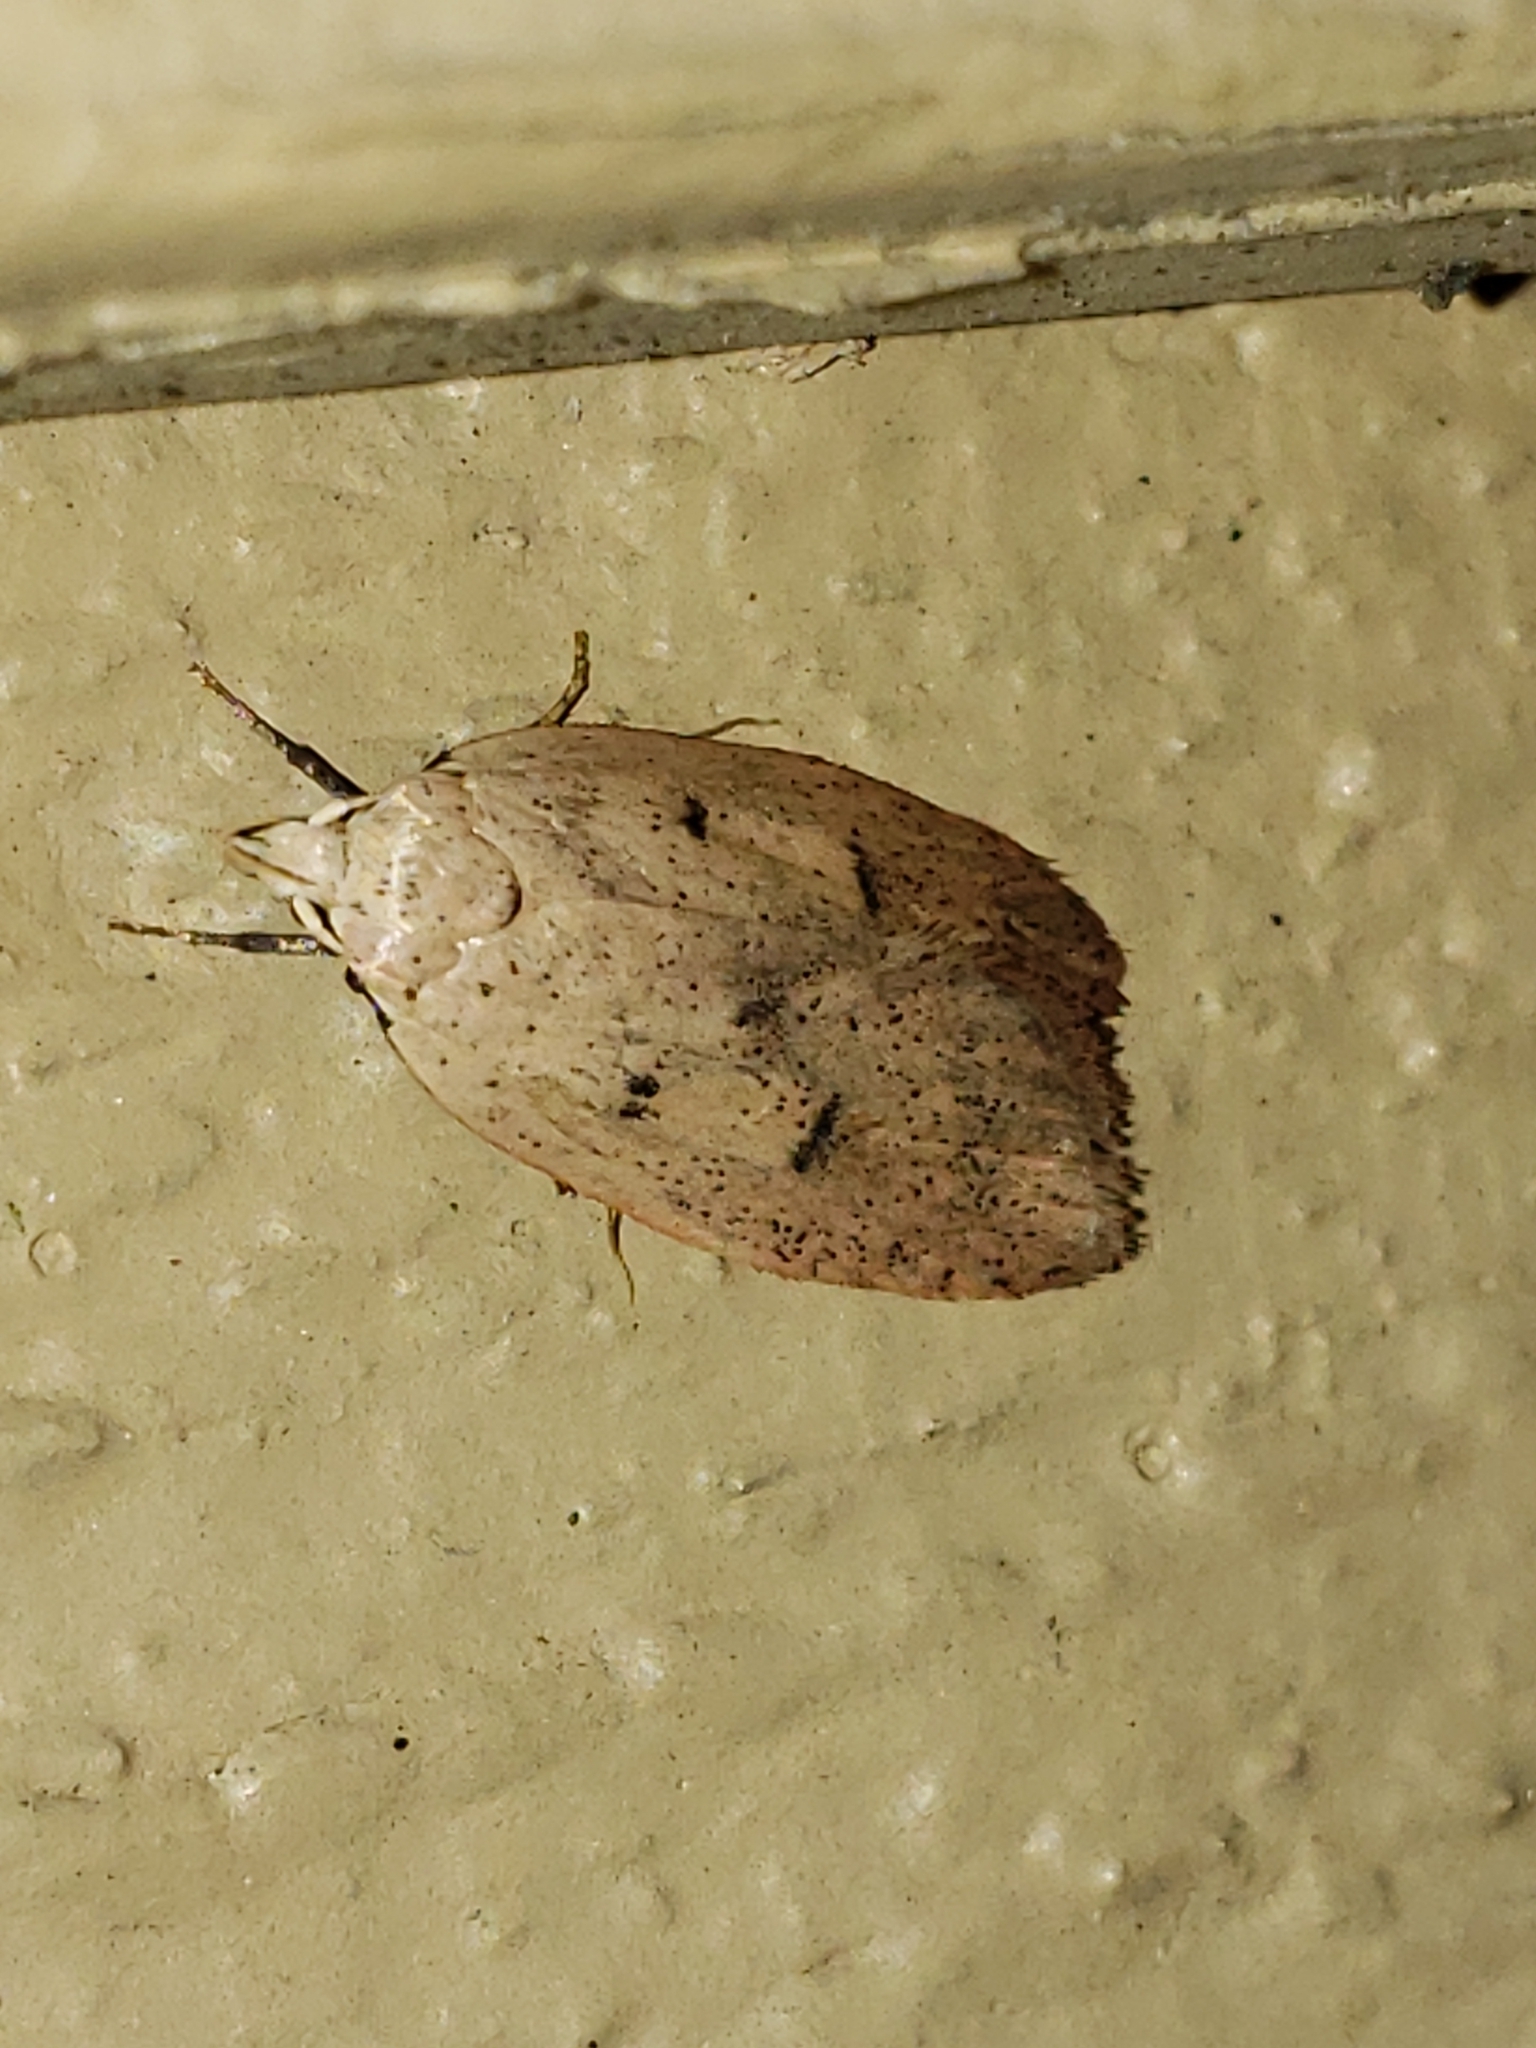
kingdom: Animalia
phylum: Arthropoda
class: Insecta
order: Lepidoptera
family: Peleopodidae
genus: Machimia
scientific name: Machimia tentoriferella
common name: Gold-striped leaftier moth
